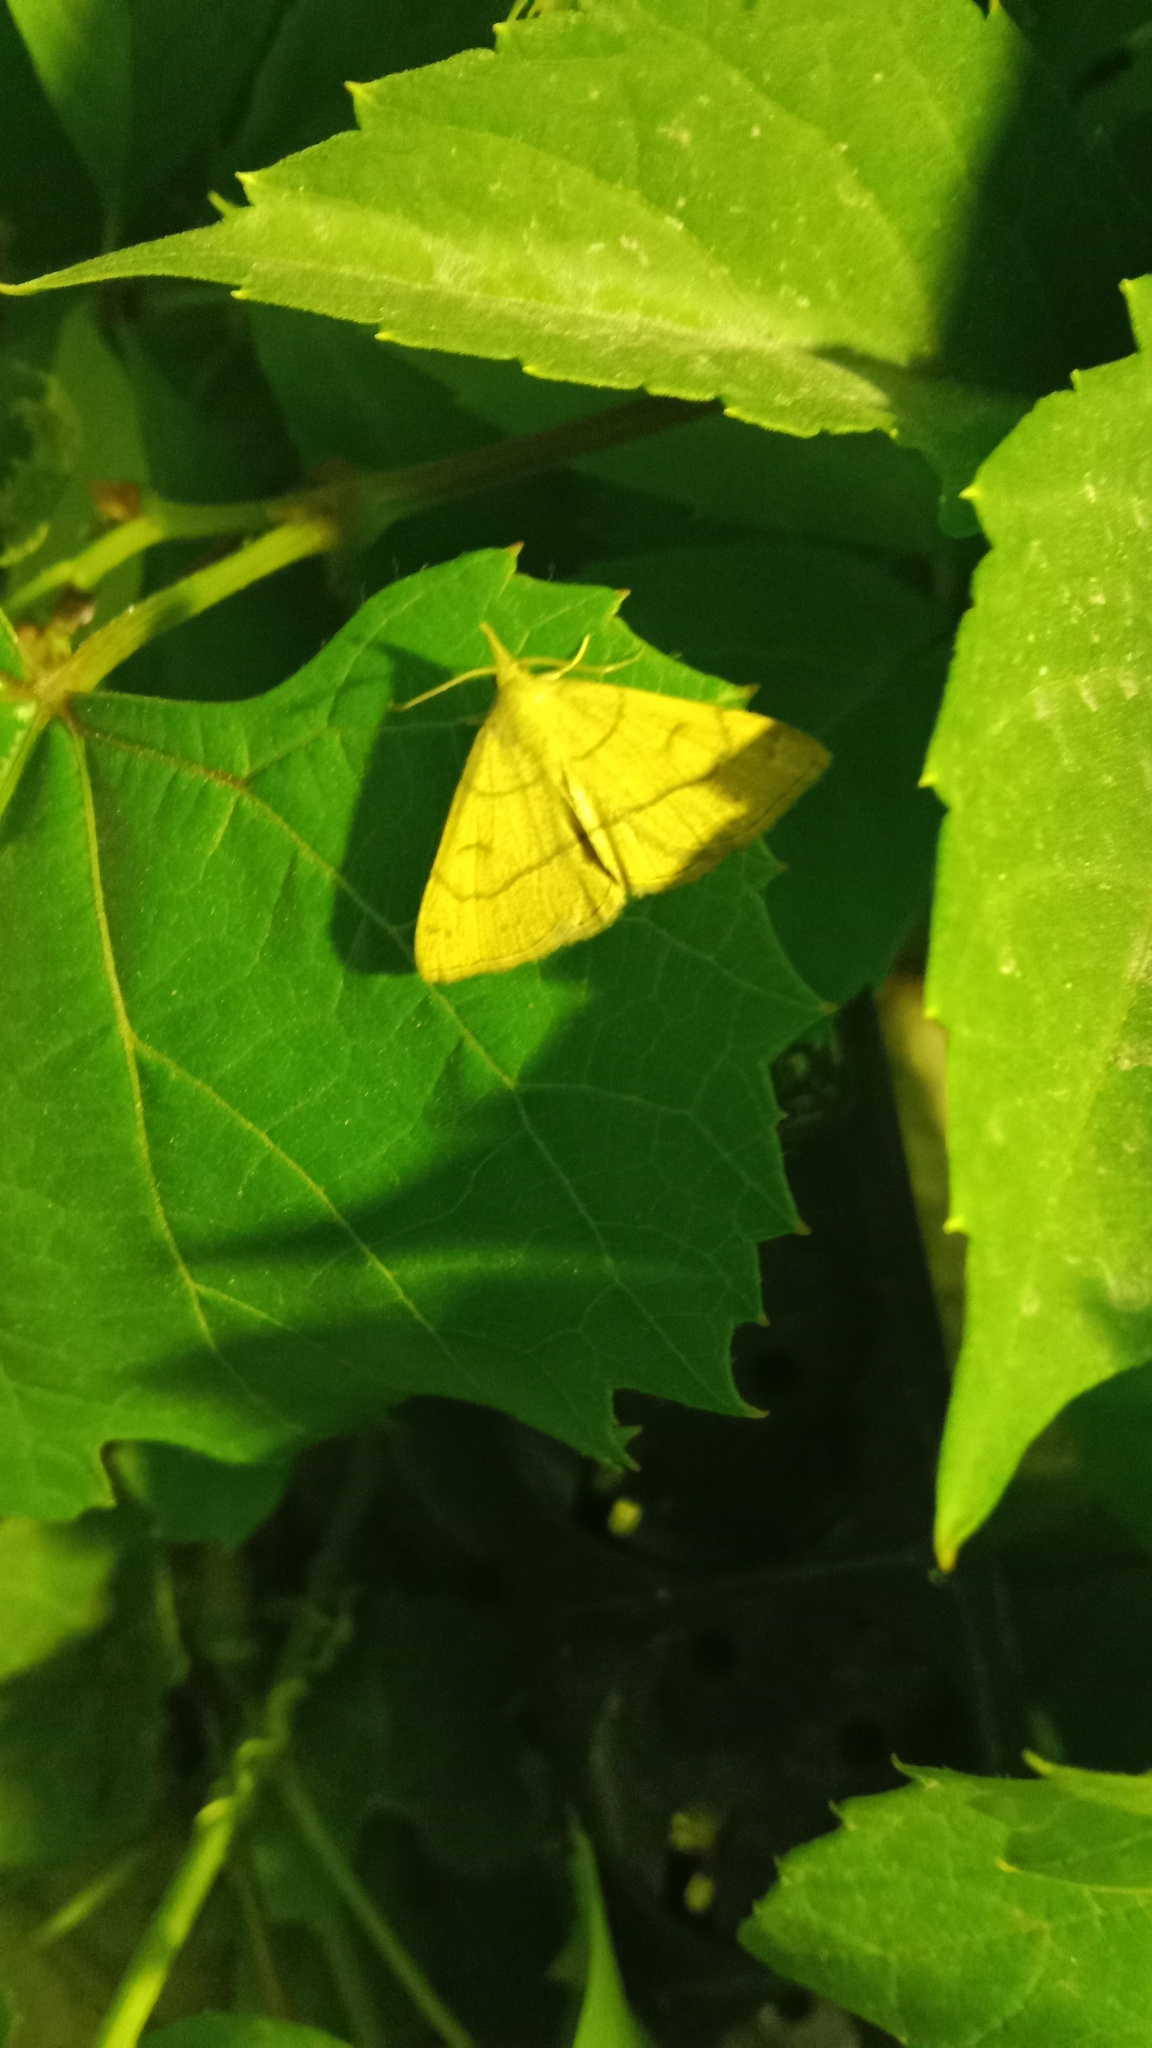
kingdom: Animalia
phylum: Arthropoda
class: Insecta
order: Lepidoptera
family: Erebidae
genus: Paracolax
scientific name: Paracolax tristalis
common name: Clay fan-foot
